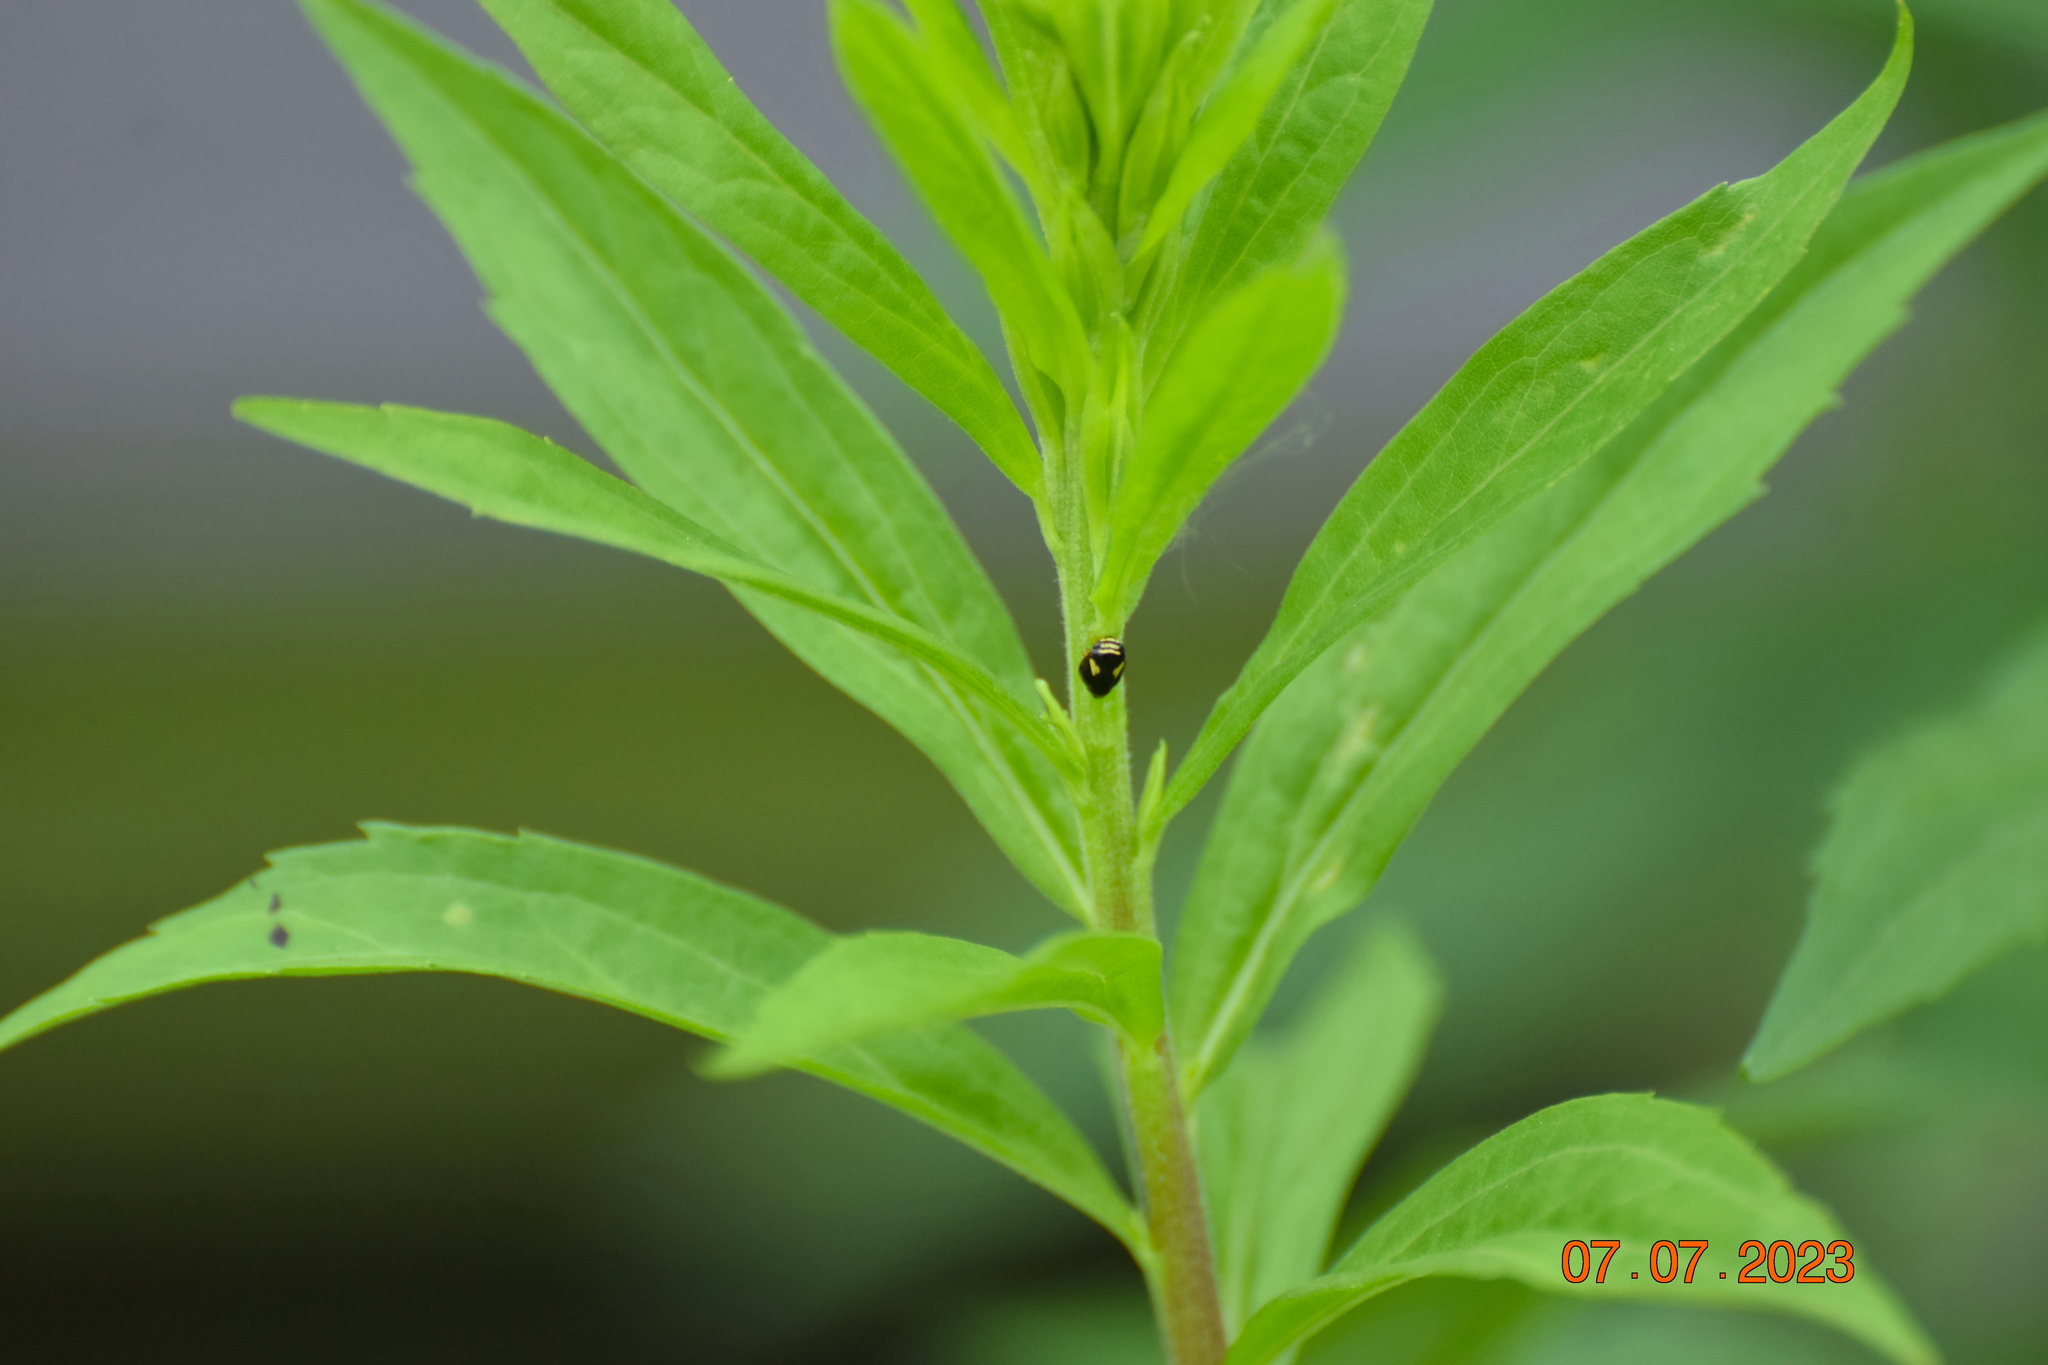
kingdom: Animalia
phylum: Arthropoda
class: Insecta
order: Hemiptera
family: Clastopteridae
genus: Clastoptera
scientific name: Clastoptera proteus
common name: Dogwood spittlebug
